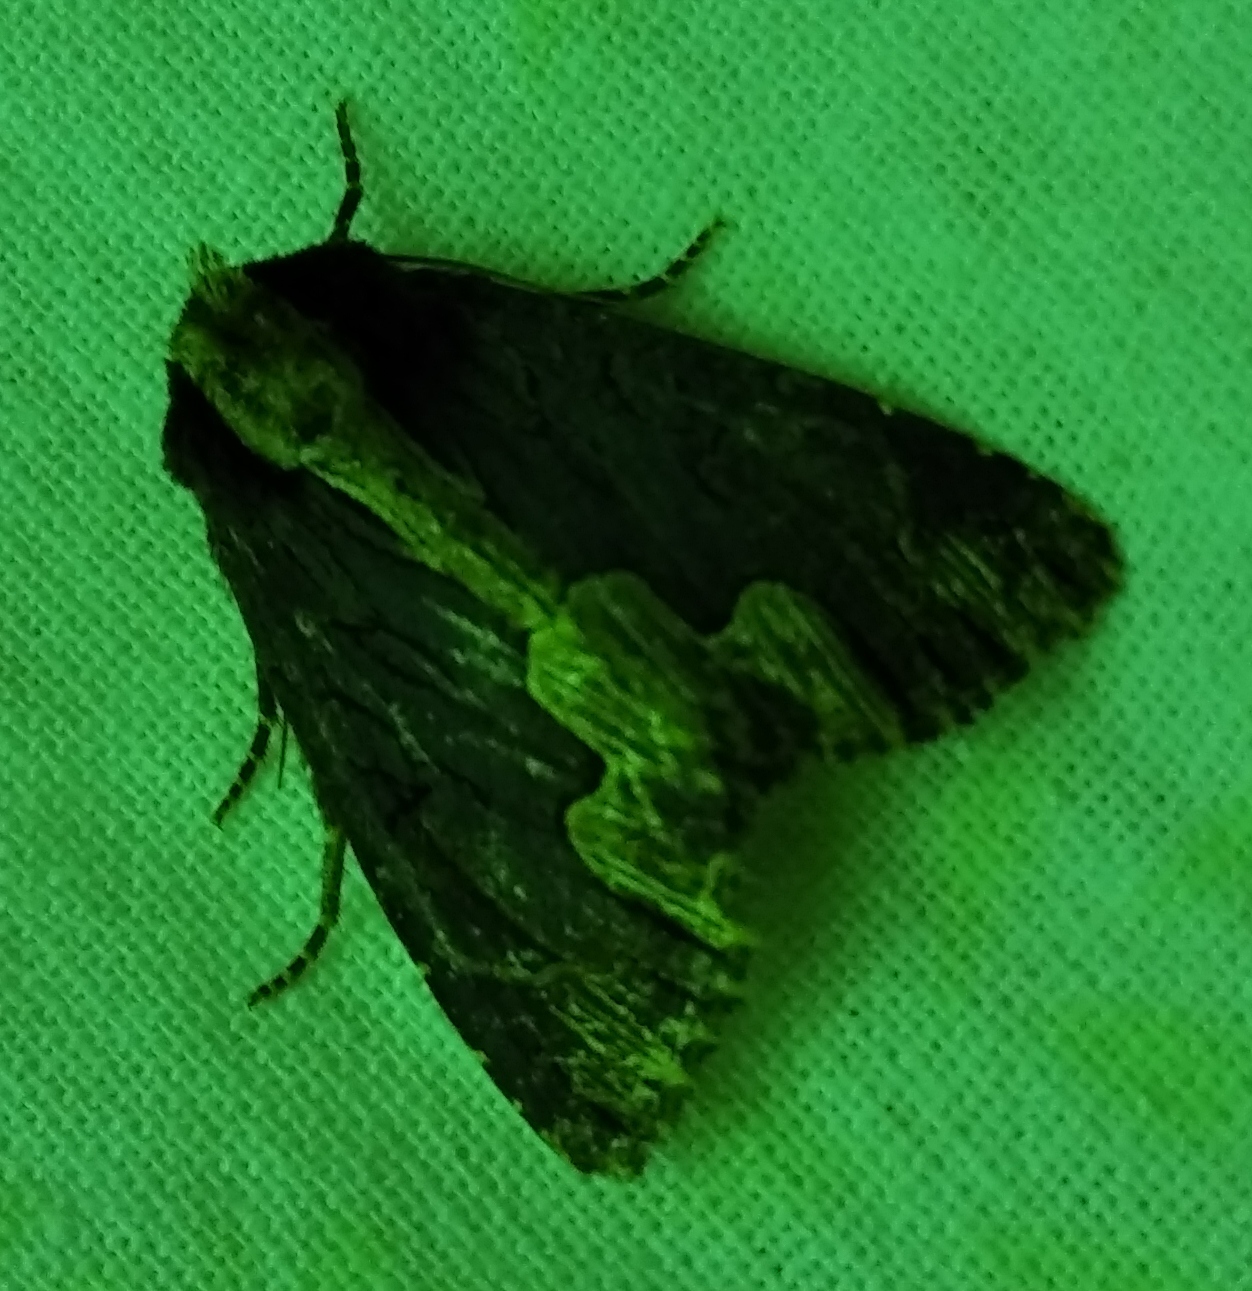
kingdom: Animalia
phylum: Arthropoda
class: Insecta
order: Lepidoptera
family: Noctuidae
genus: Dypterygia
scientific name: Dypterygia scabriuscula
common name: Bird's wing
